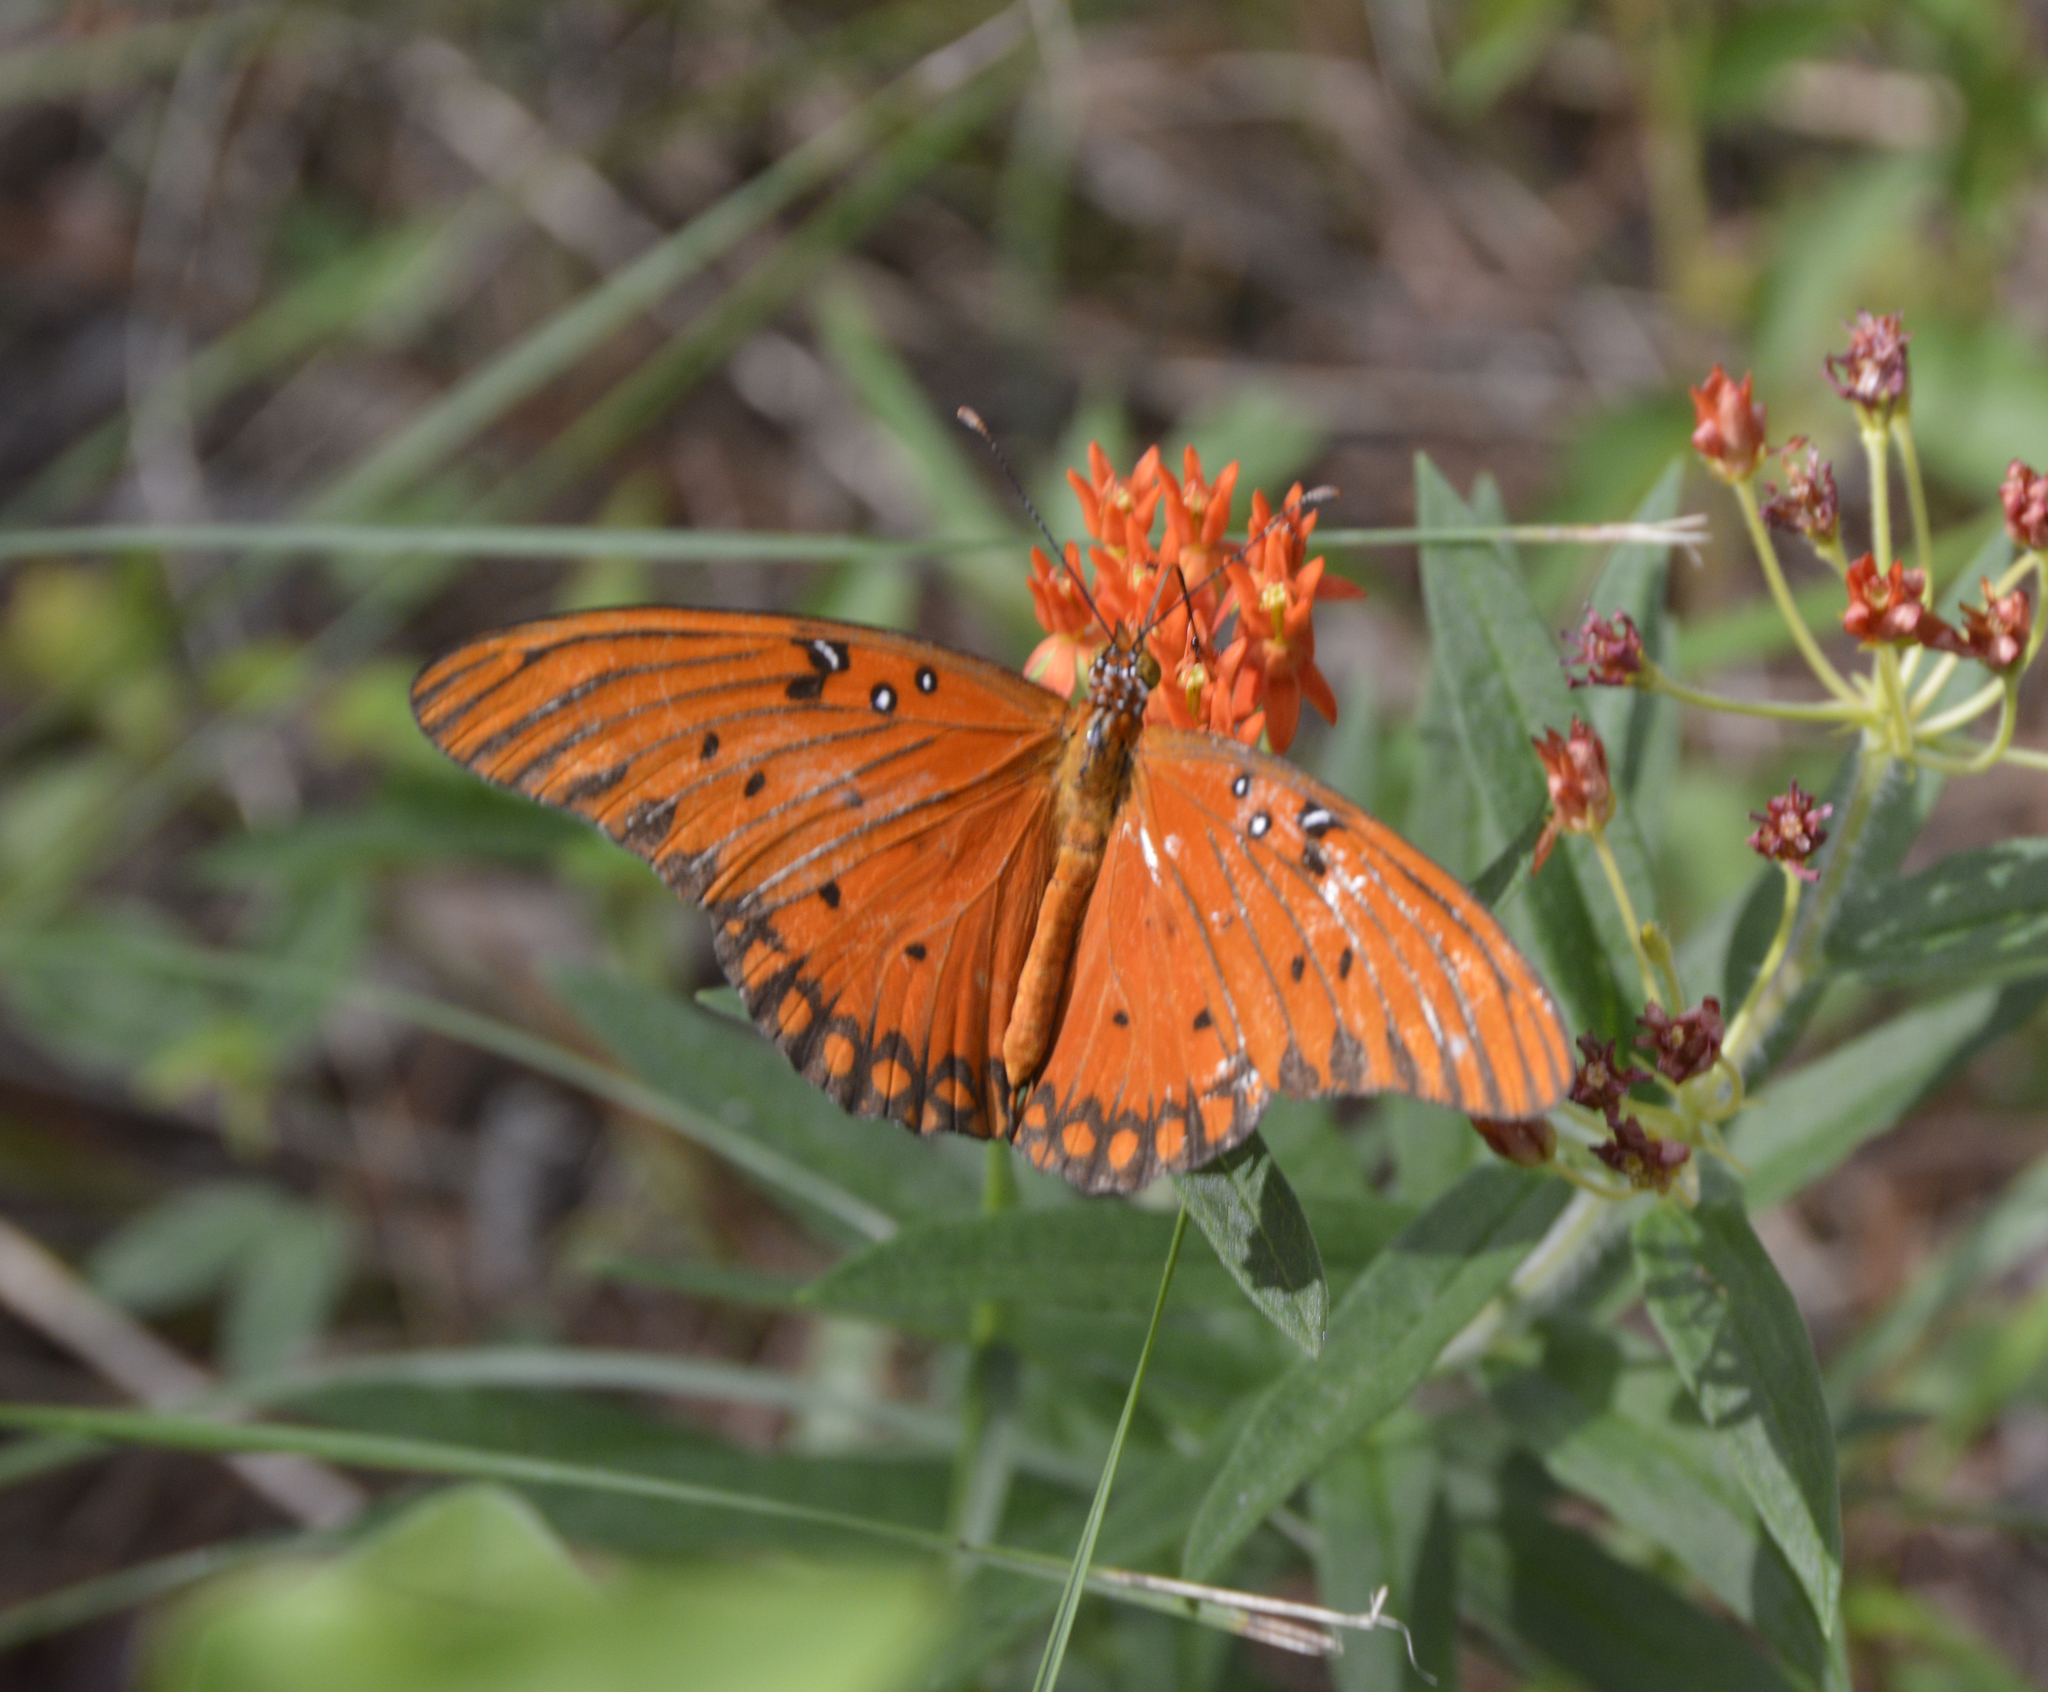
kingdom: Animalia
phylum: Arthropoda
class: Insecta
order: Lepidoptera
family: Nymphalidae
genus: Dione
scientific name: Dione vanillae
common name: Gulf fritillary
